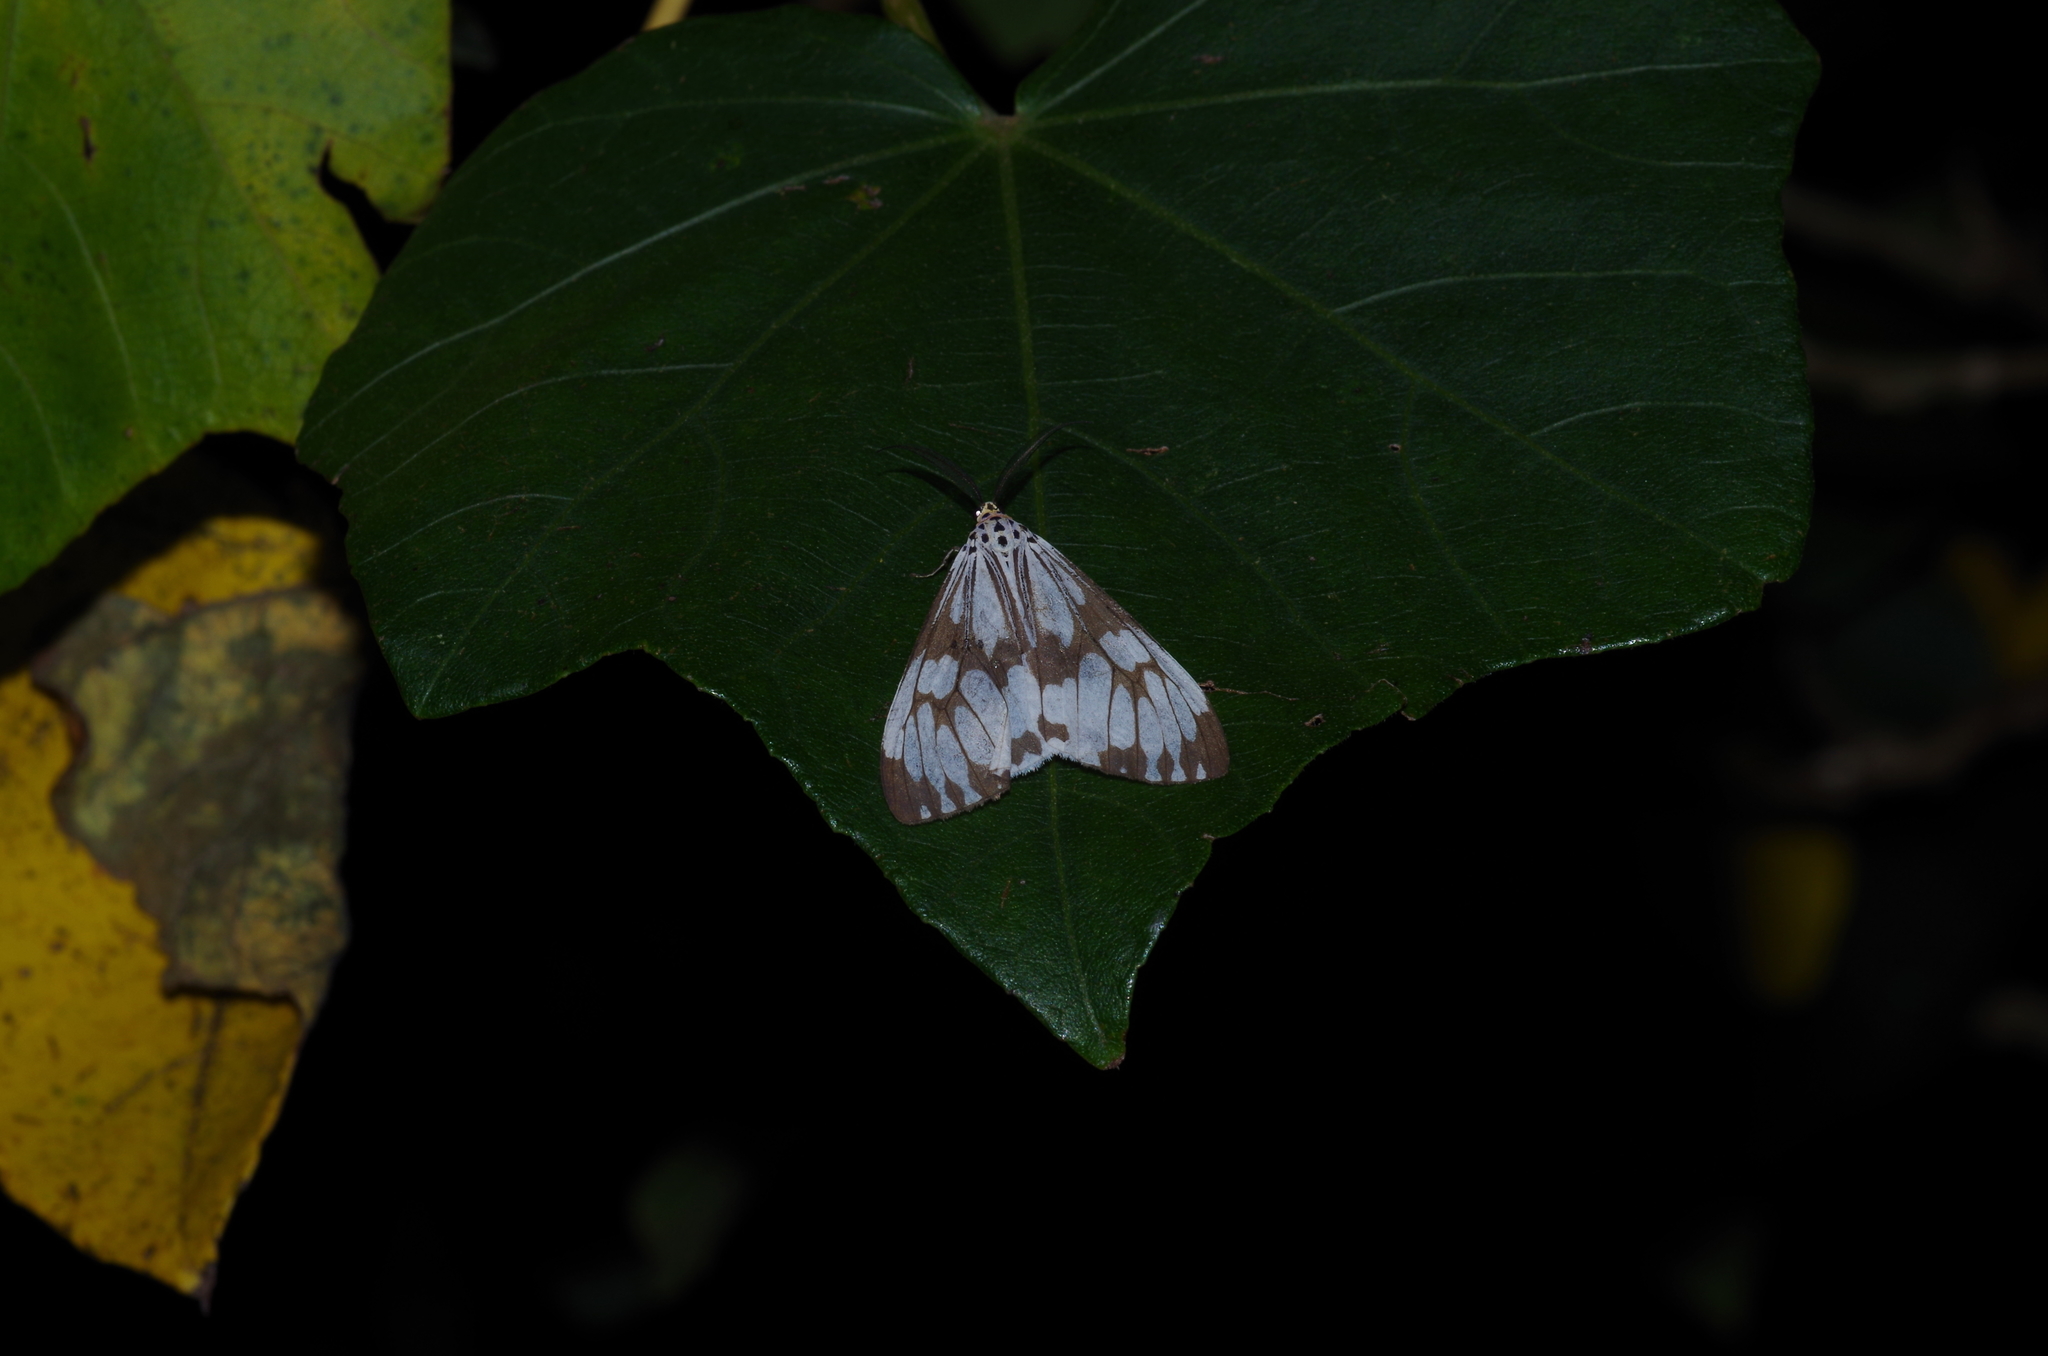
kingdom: Animalia
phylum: Arthropoda
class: Insecta
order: Lepidoptera
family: Erebidae
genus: Nyctemera
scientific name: Nyctemera adversata
